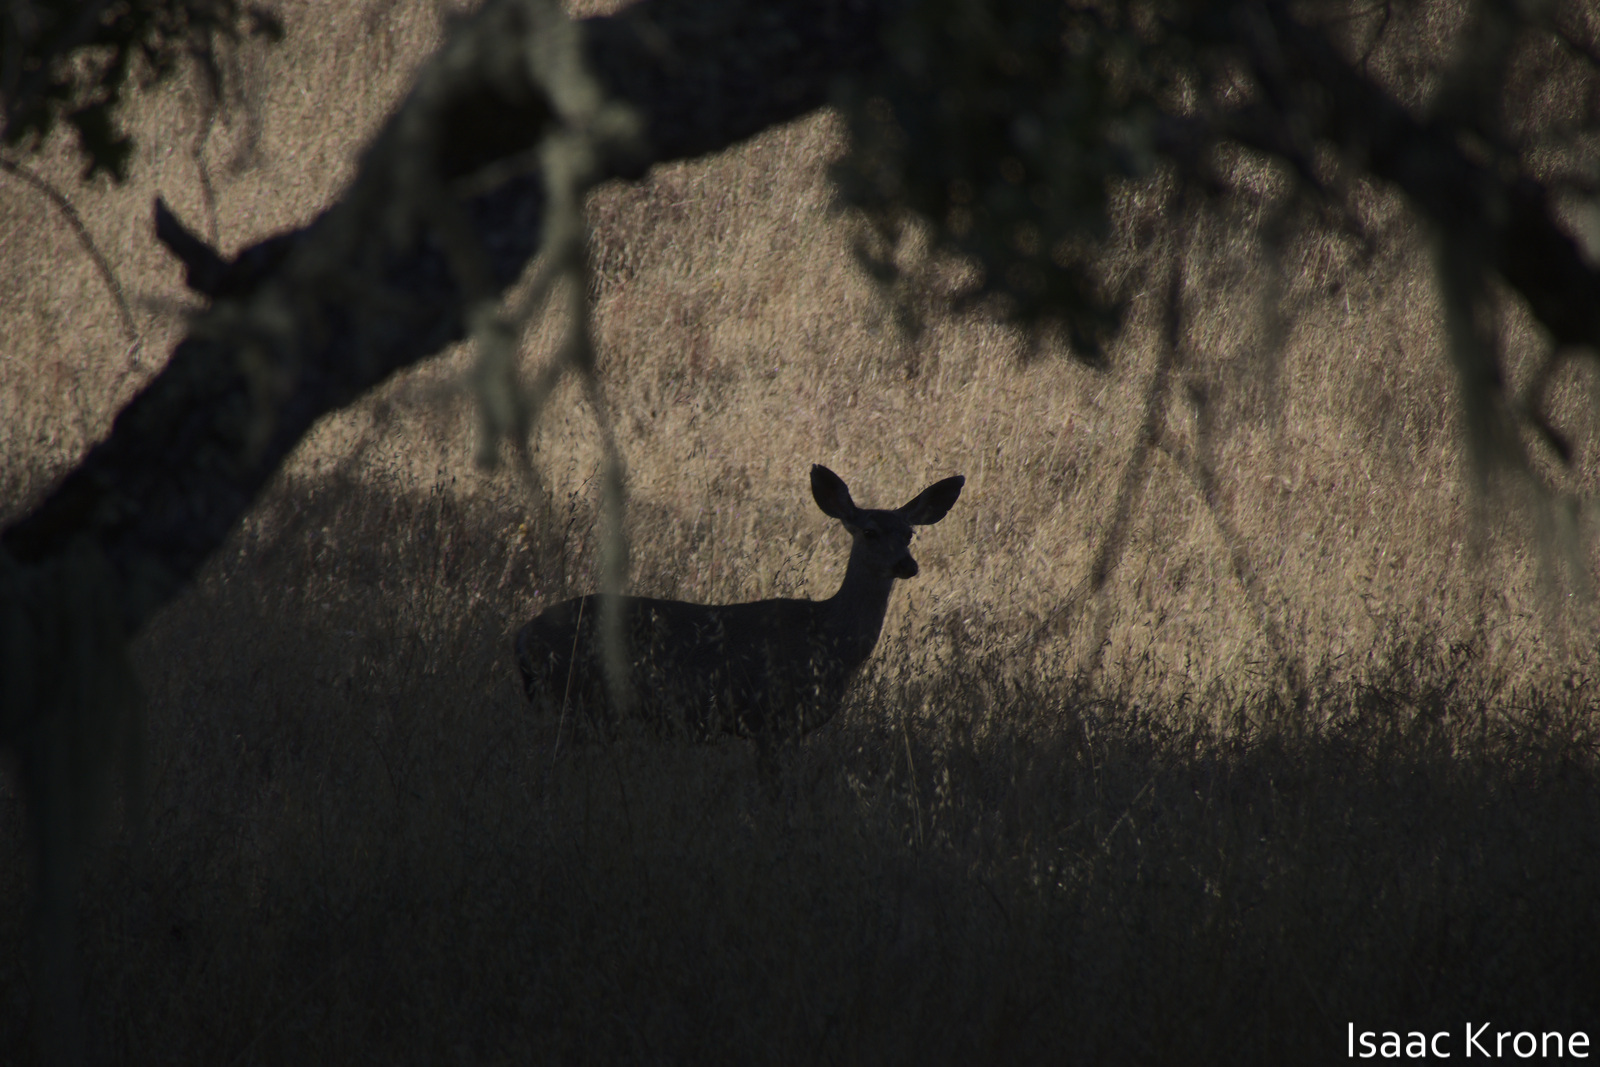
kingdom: Animalia
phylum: Chordata
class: Mammalia
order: Artiodactyla
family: Cervidae
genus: Odocoileus
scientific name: Odocoileus hemionus
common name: Mule deer
